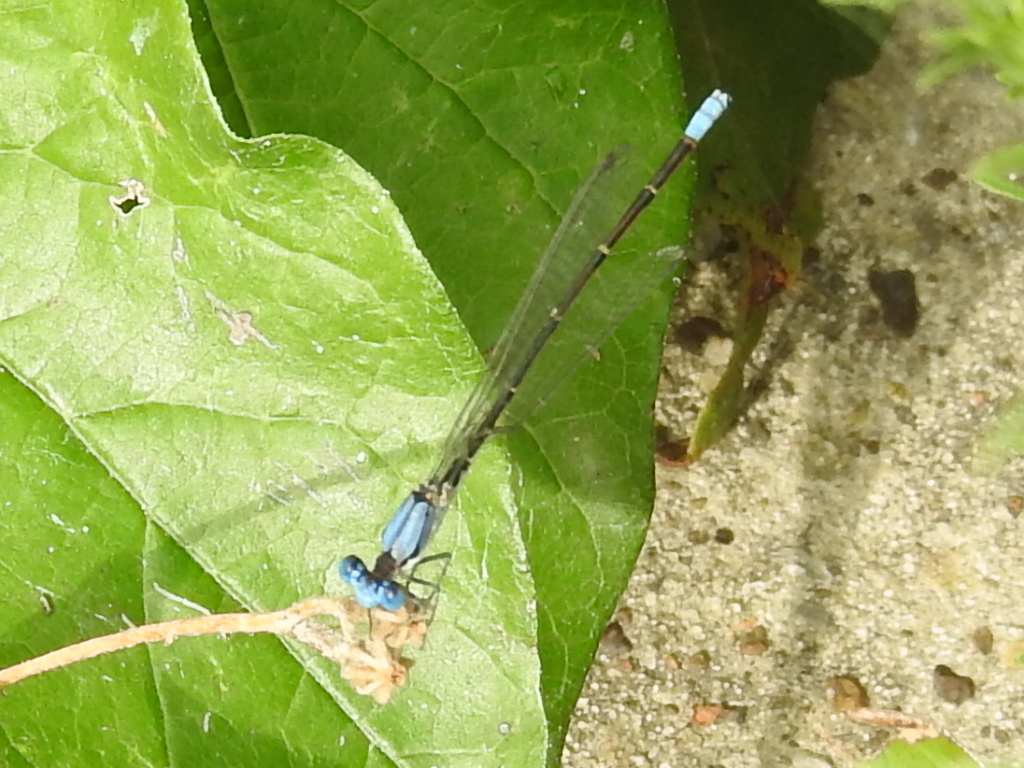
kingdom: Animalia
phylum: Arthropoda
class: Insecta
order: Odonata
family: Coenagrionidae
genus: Argia
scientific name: Argia apicalis
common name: Blue-fronted dancer
